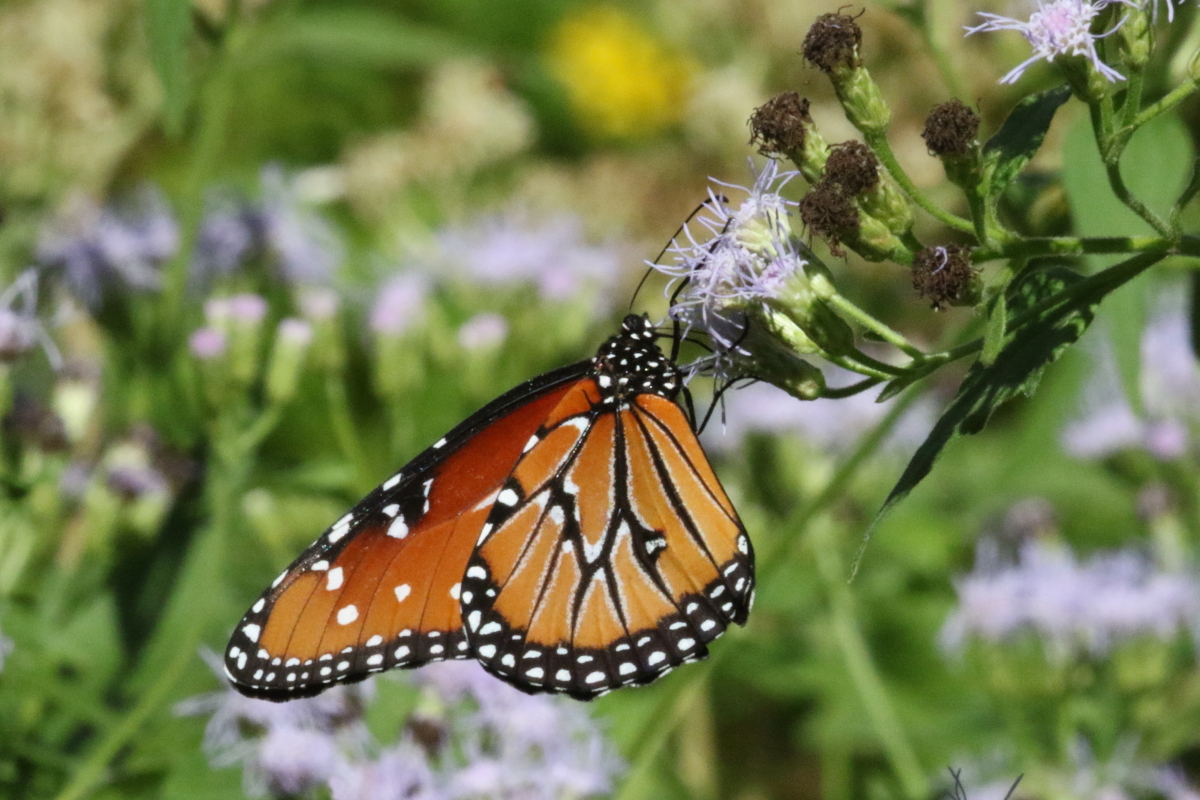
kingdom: Animalia
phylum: Arthropoda
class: Insecta
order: Lepidoptera
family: Nymphalidae
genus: Danaus
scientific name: Danaus gilippus
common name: Queen
